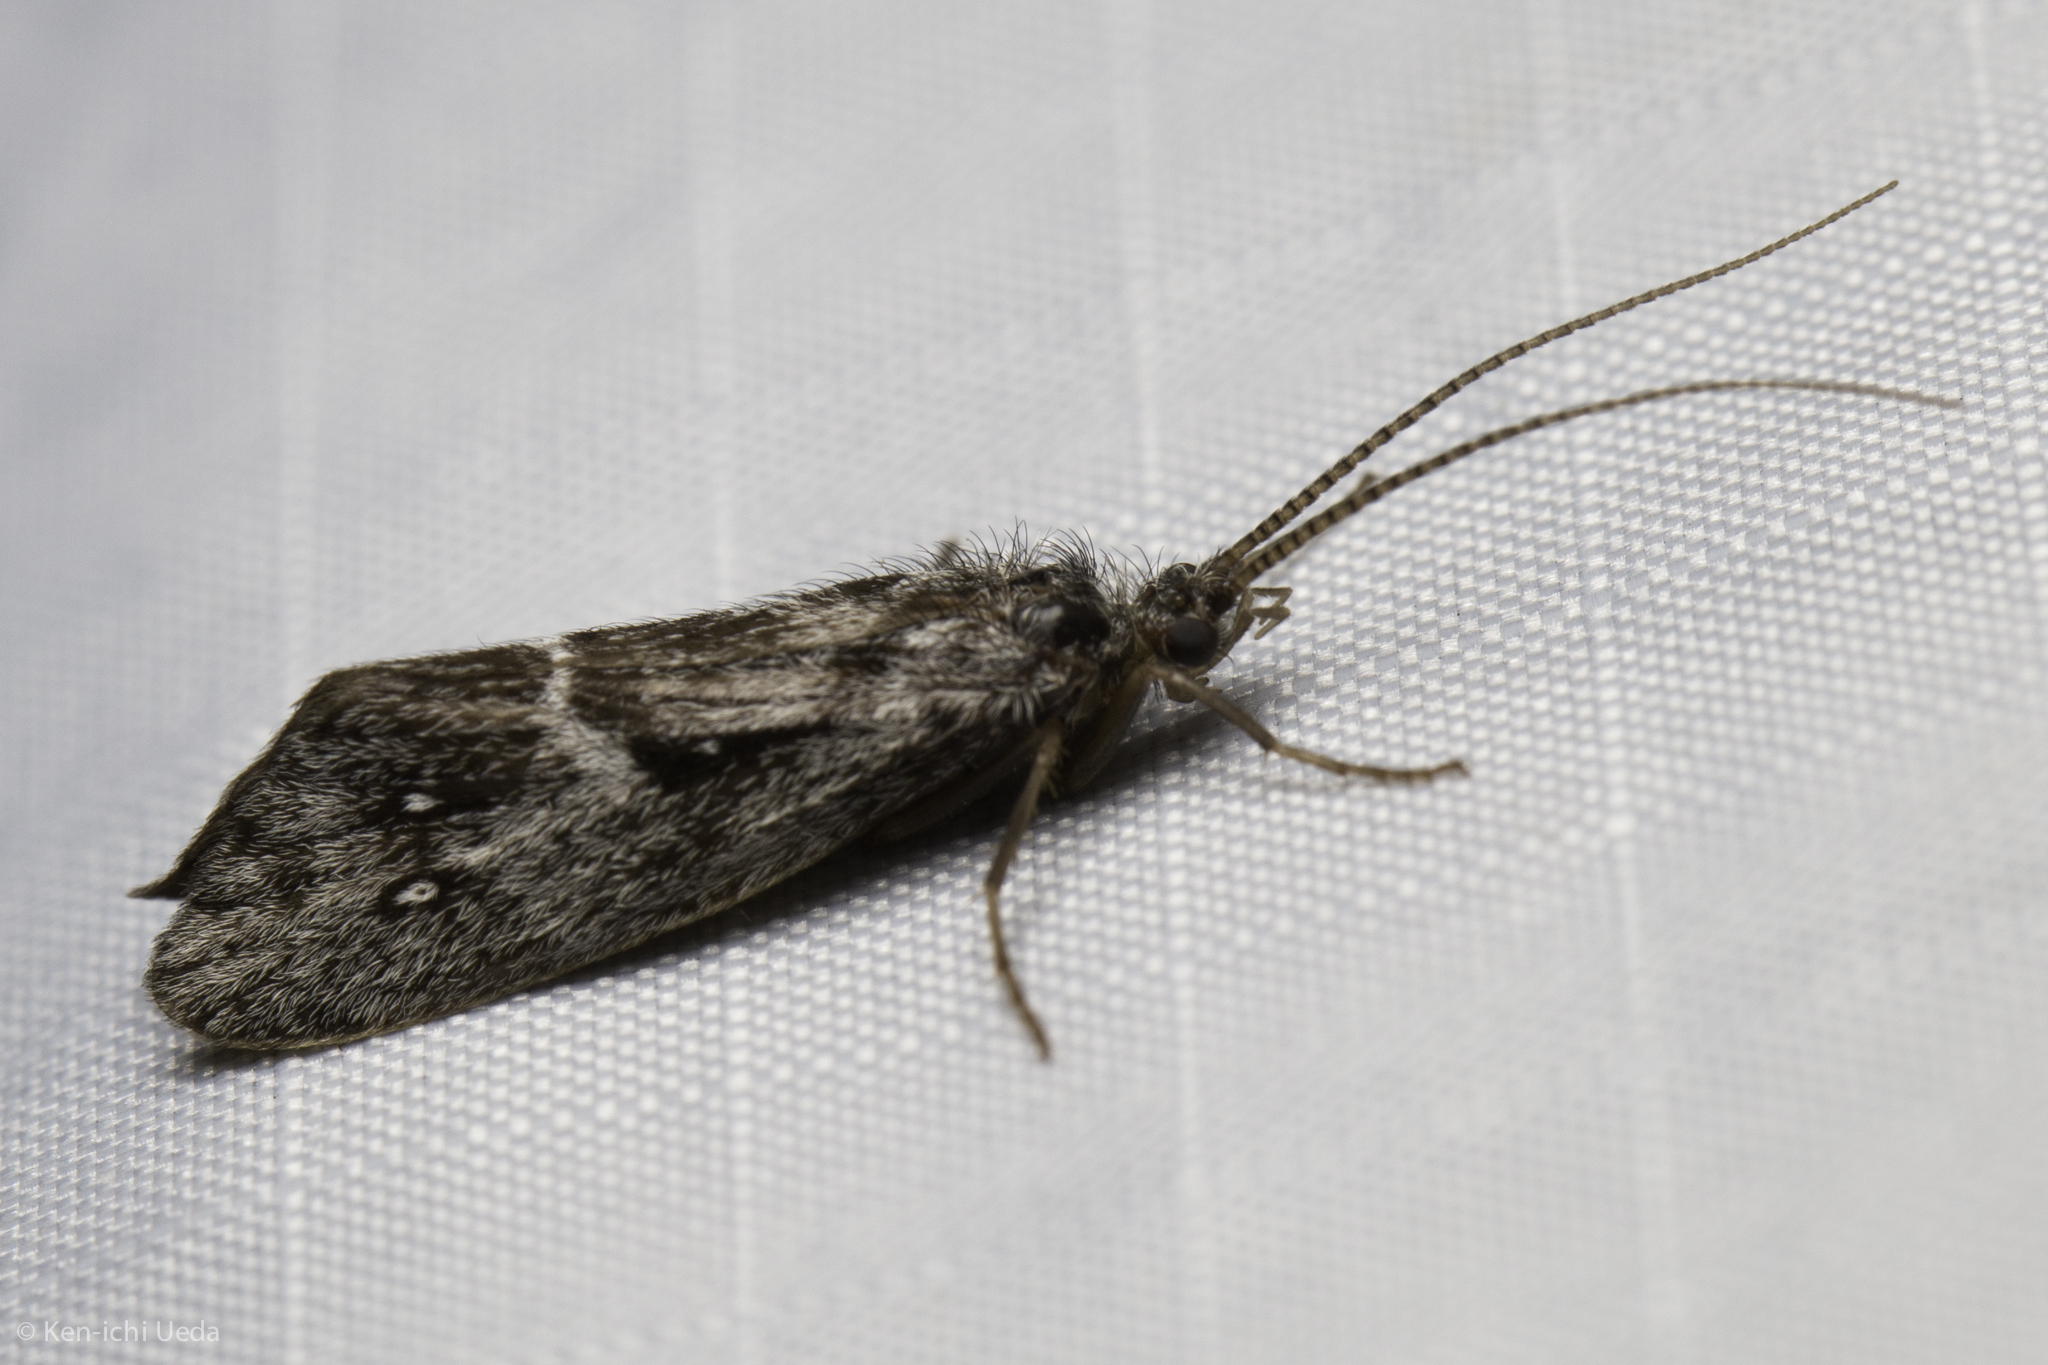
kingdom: Animalia
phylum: Arthropoda
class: Insecta
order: Trichoptera
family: Phryganeidae
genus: Yphria
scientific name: Yphria californica
